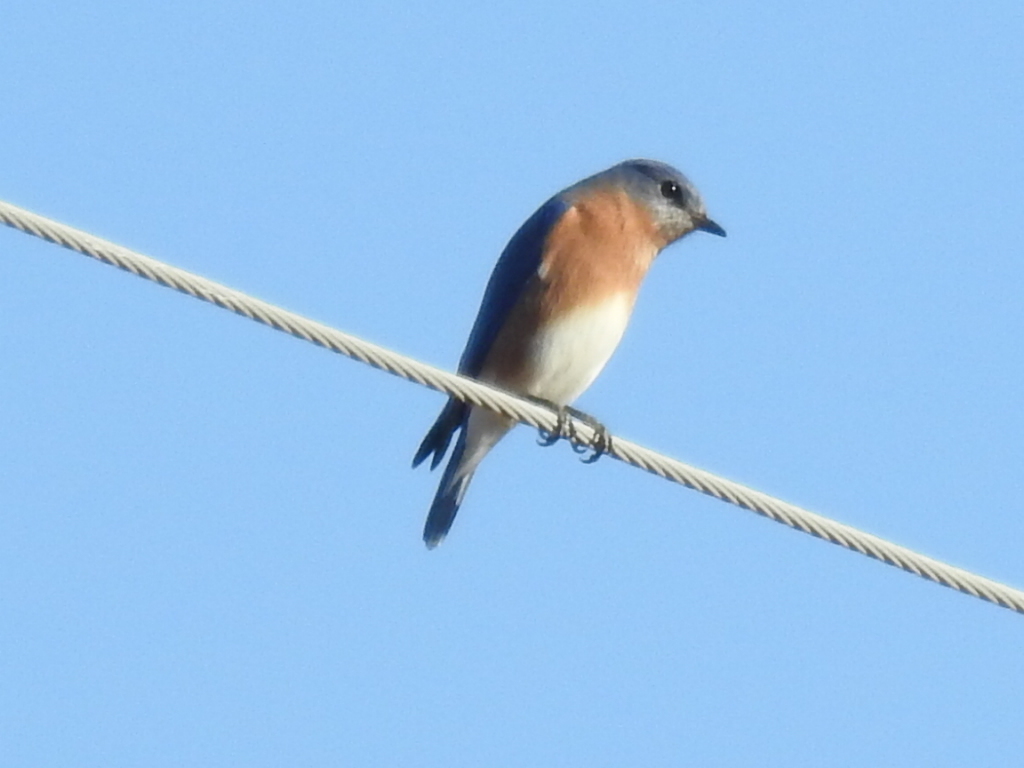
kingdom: Animalia
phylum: Chordata
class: Aves
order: Passeriformes
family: Turdidae
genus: Sialia
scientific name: Sialia sialis
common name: Eastern bluebird
